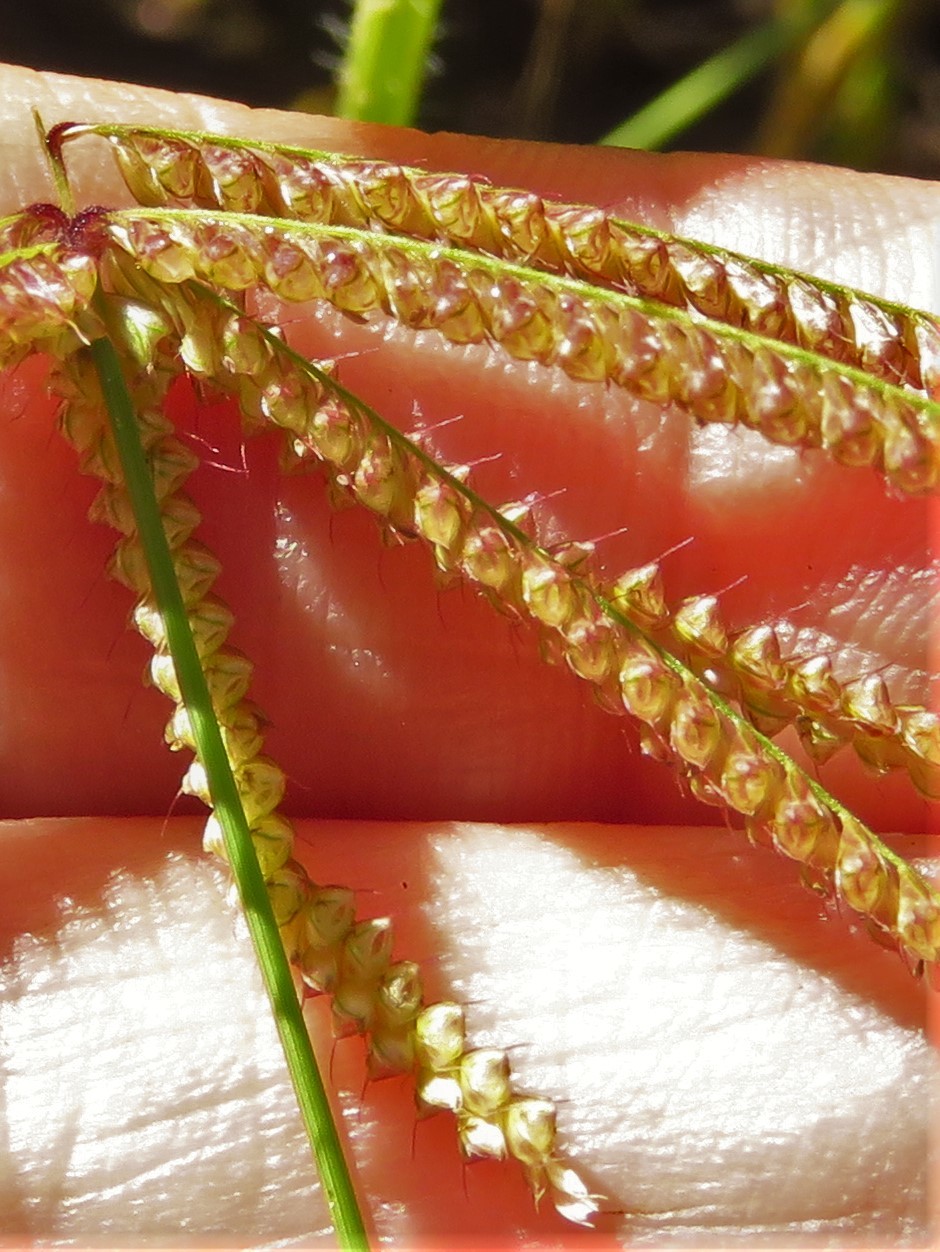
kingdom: Plantae
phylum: Tracheophyta
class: Liliopsida
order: Poales
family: Poaceae
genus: Chloris
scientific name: Chloris cucullata
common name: Hooded windmill grass
